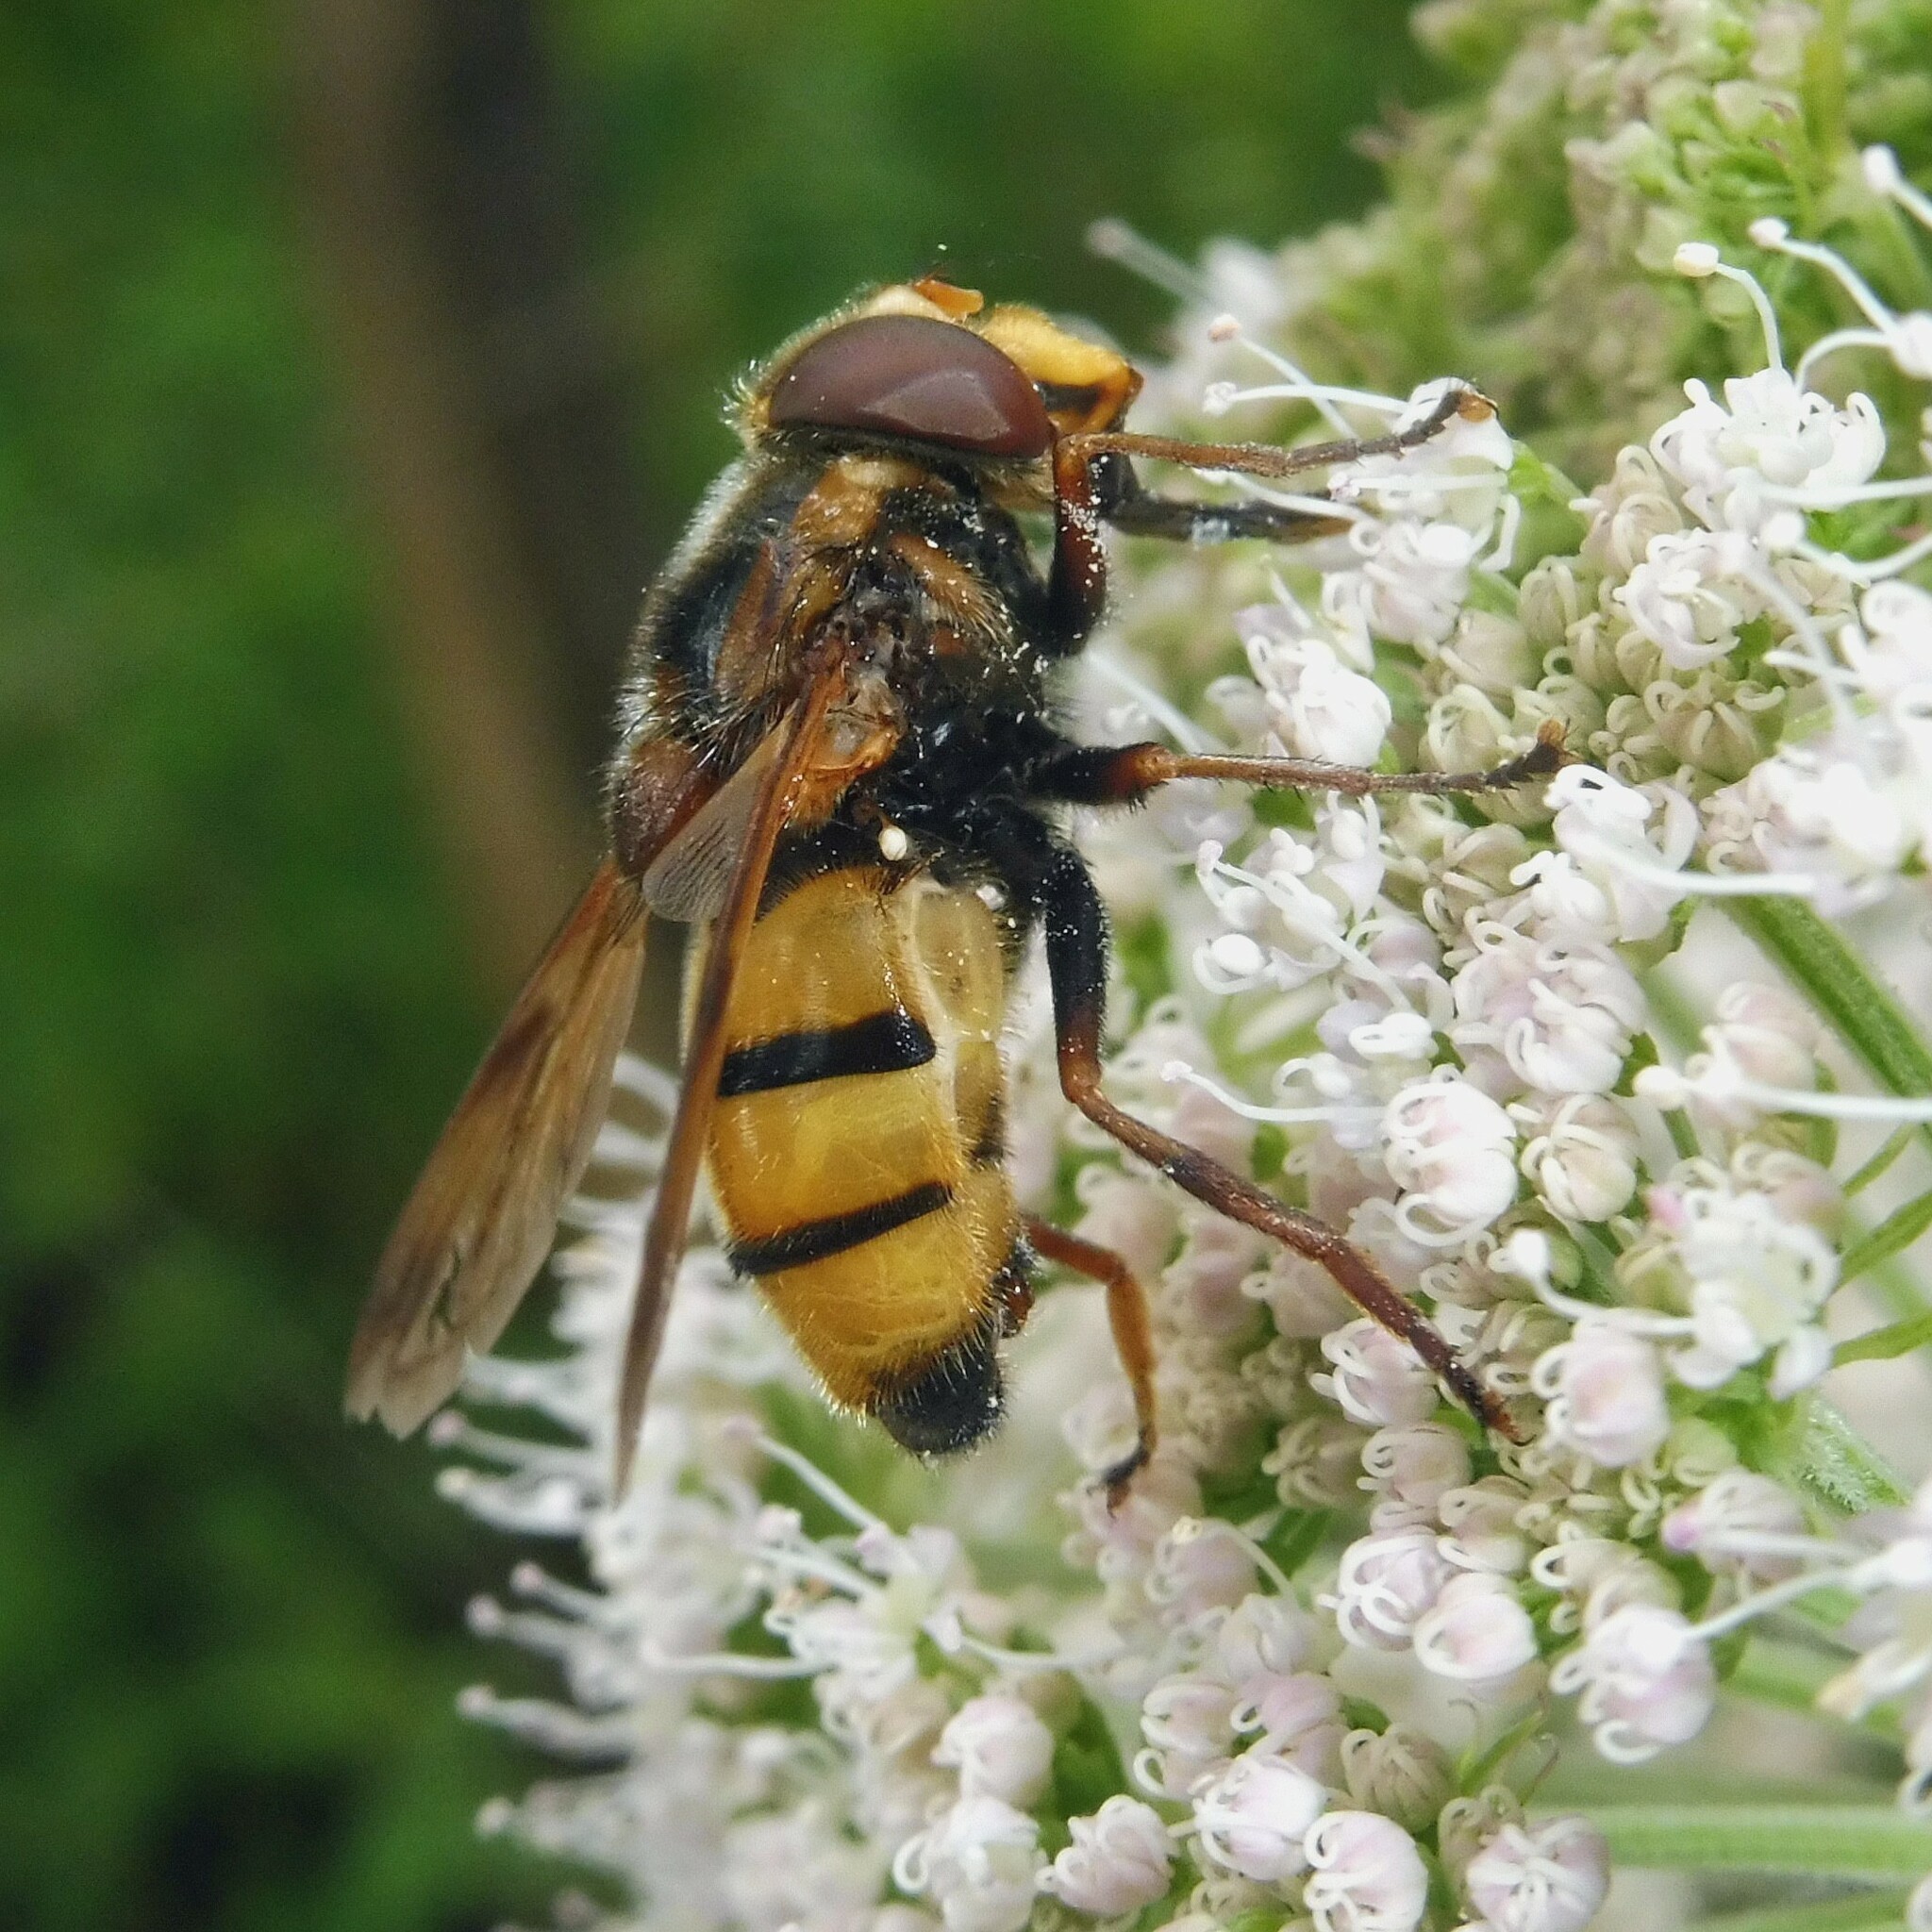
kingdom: Animalia
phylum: Arthropoda
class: Insecta
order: Diptera
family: Syrphidae
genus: Volucella
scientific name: Volucella inanis
